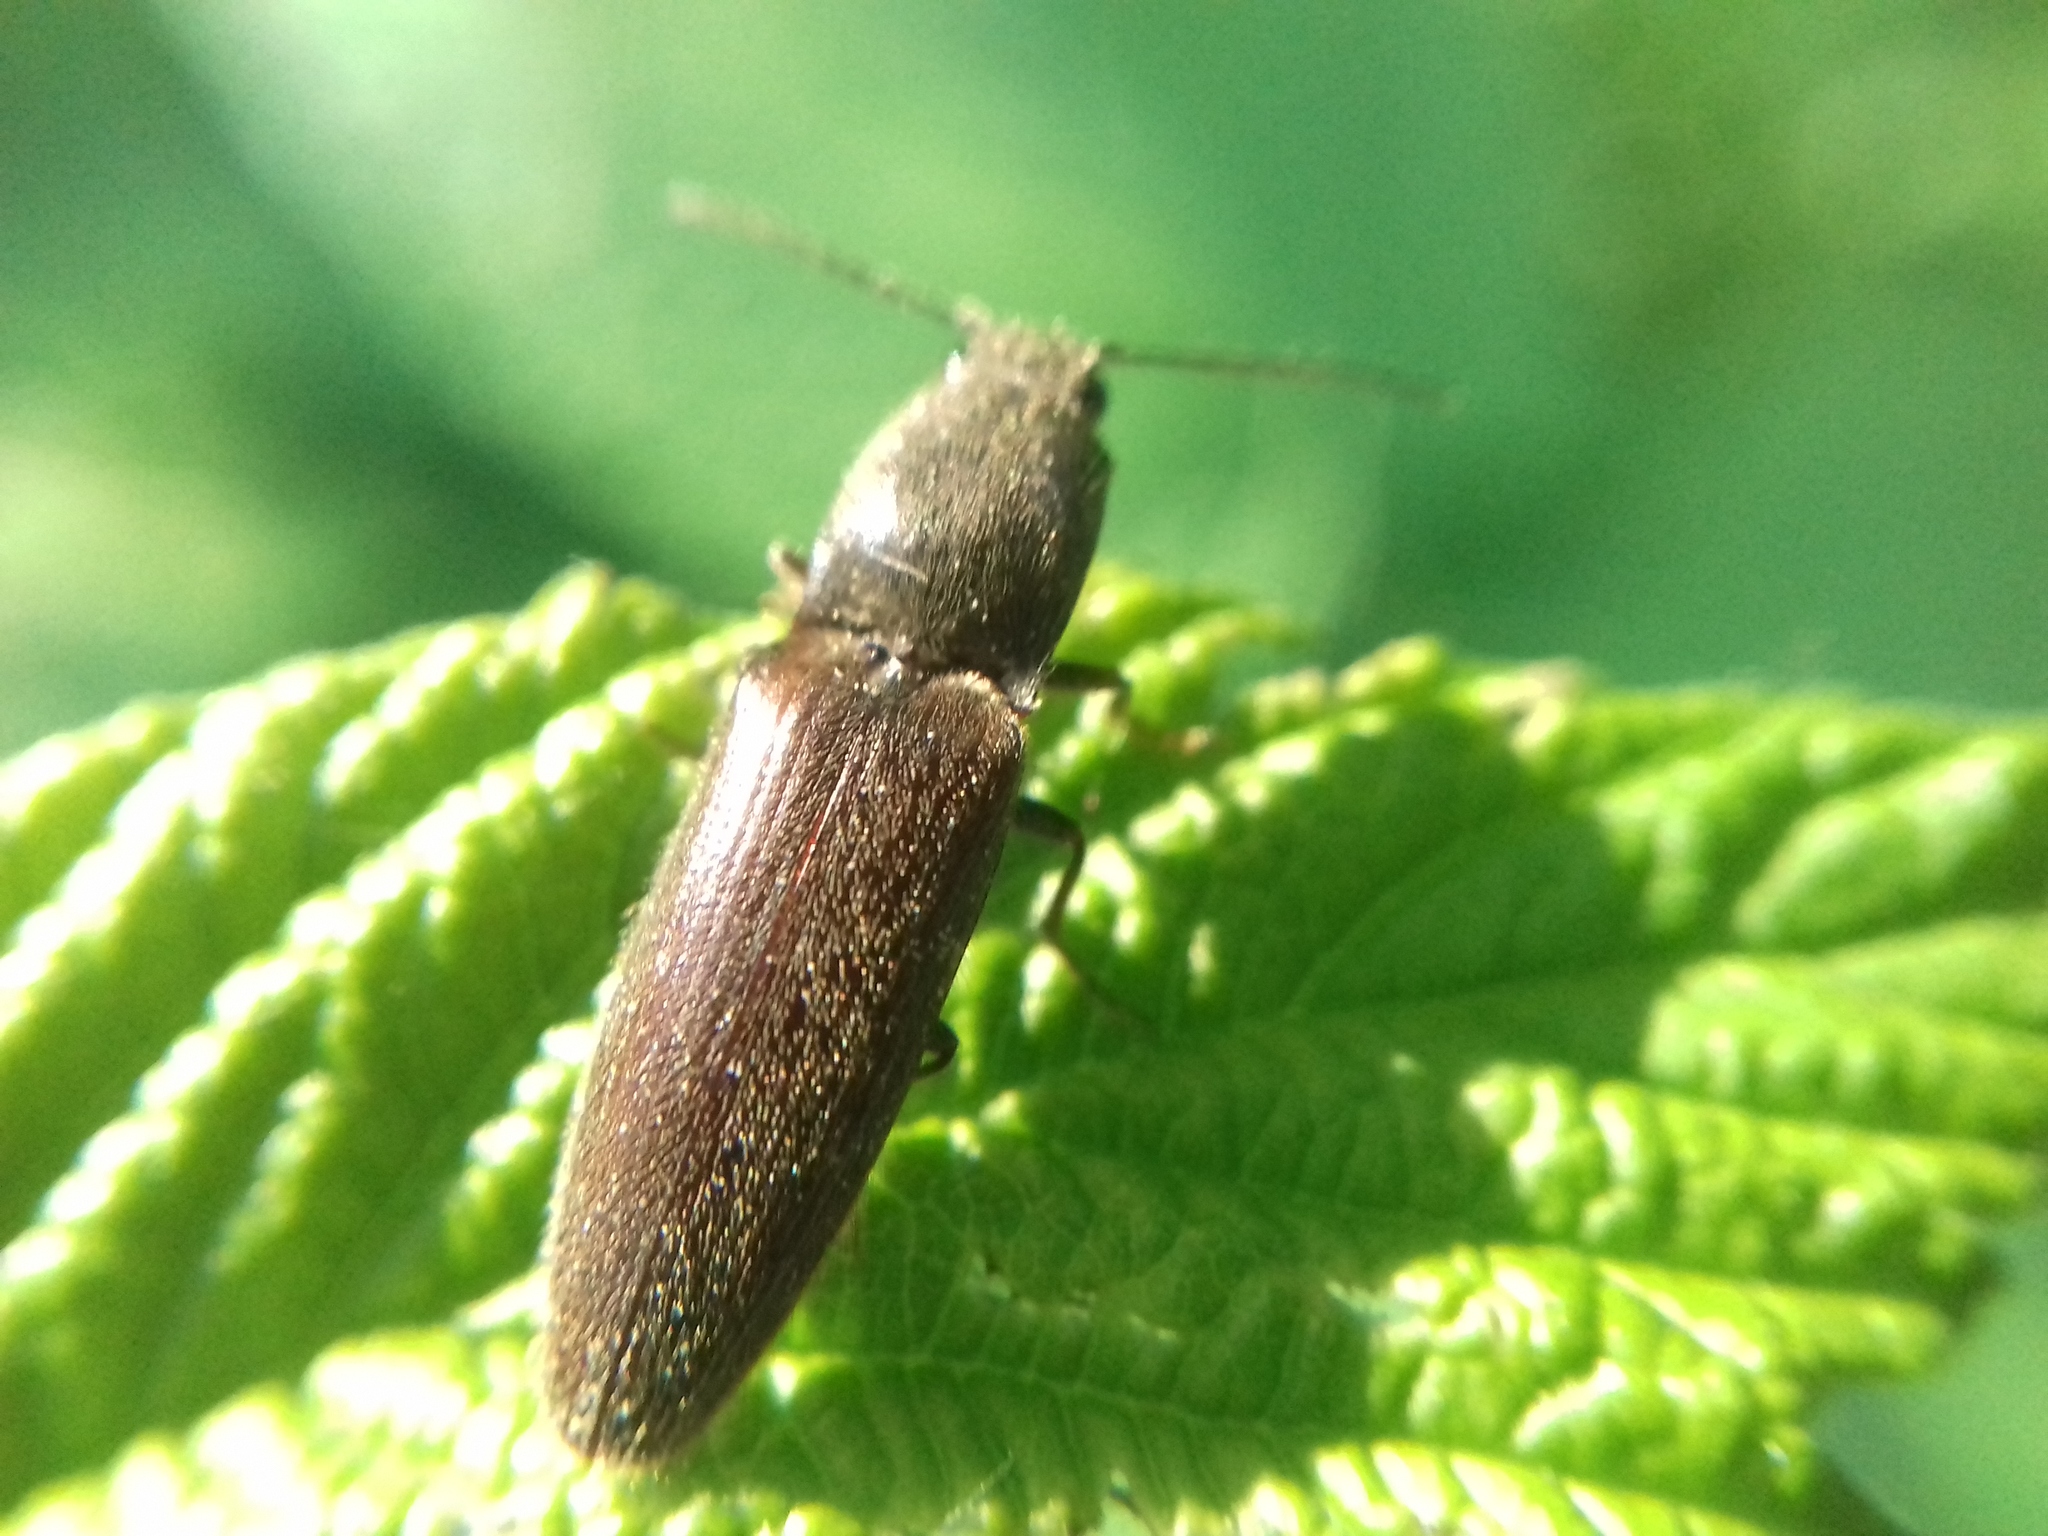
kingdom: Animalia
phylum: Arthropoda
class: Insecta
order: Coleoptera
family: Elateridae
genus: Athous
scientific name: Athous haemorrhoidalis
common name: Red-brown click beetle
